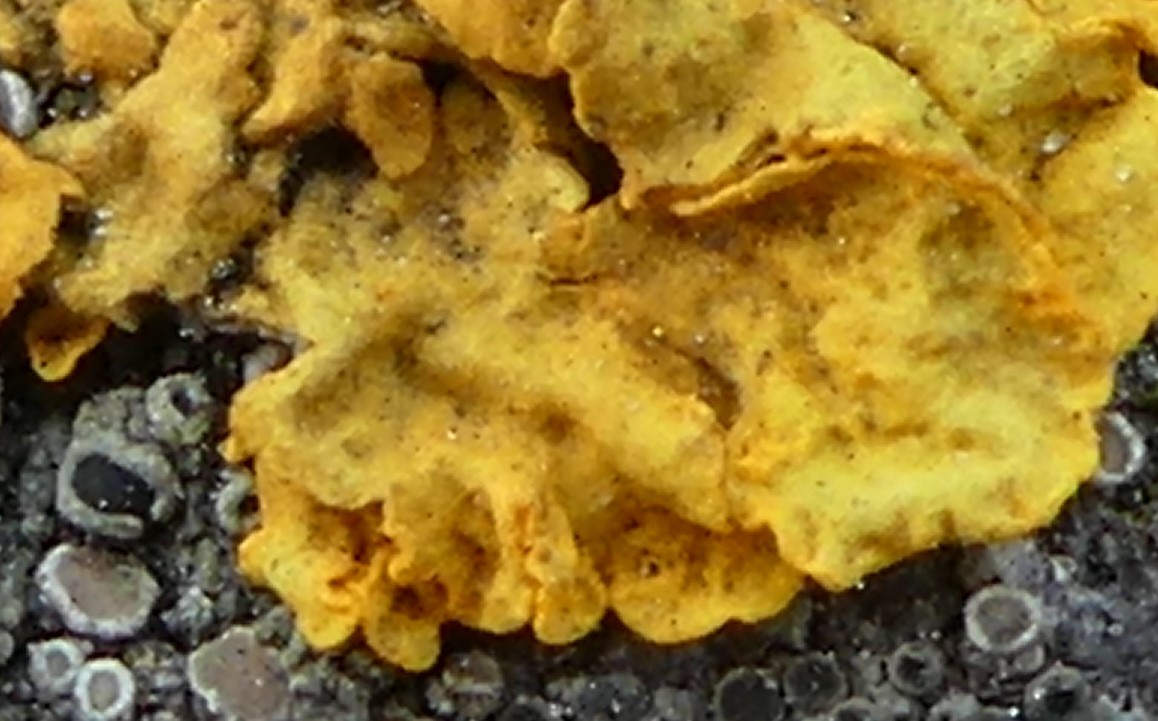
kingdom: Fungi
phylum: Ascomycota
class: Lecanoromycetes
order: Teloschistales
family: Teloschistaceae
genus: Xanthoria
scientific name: Xanthoria parietina
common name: Common orange lichen
